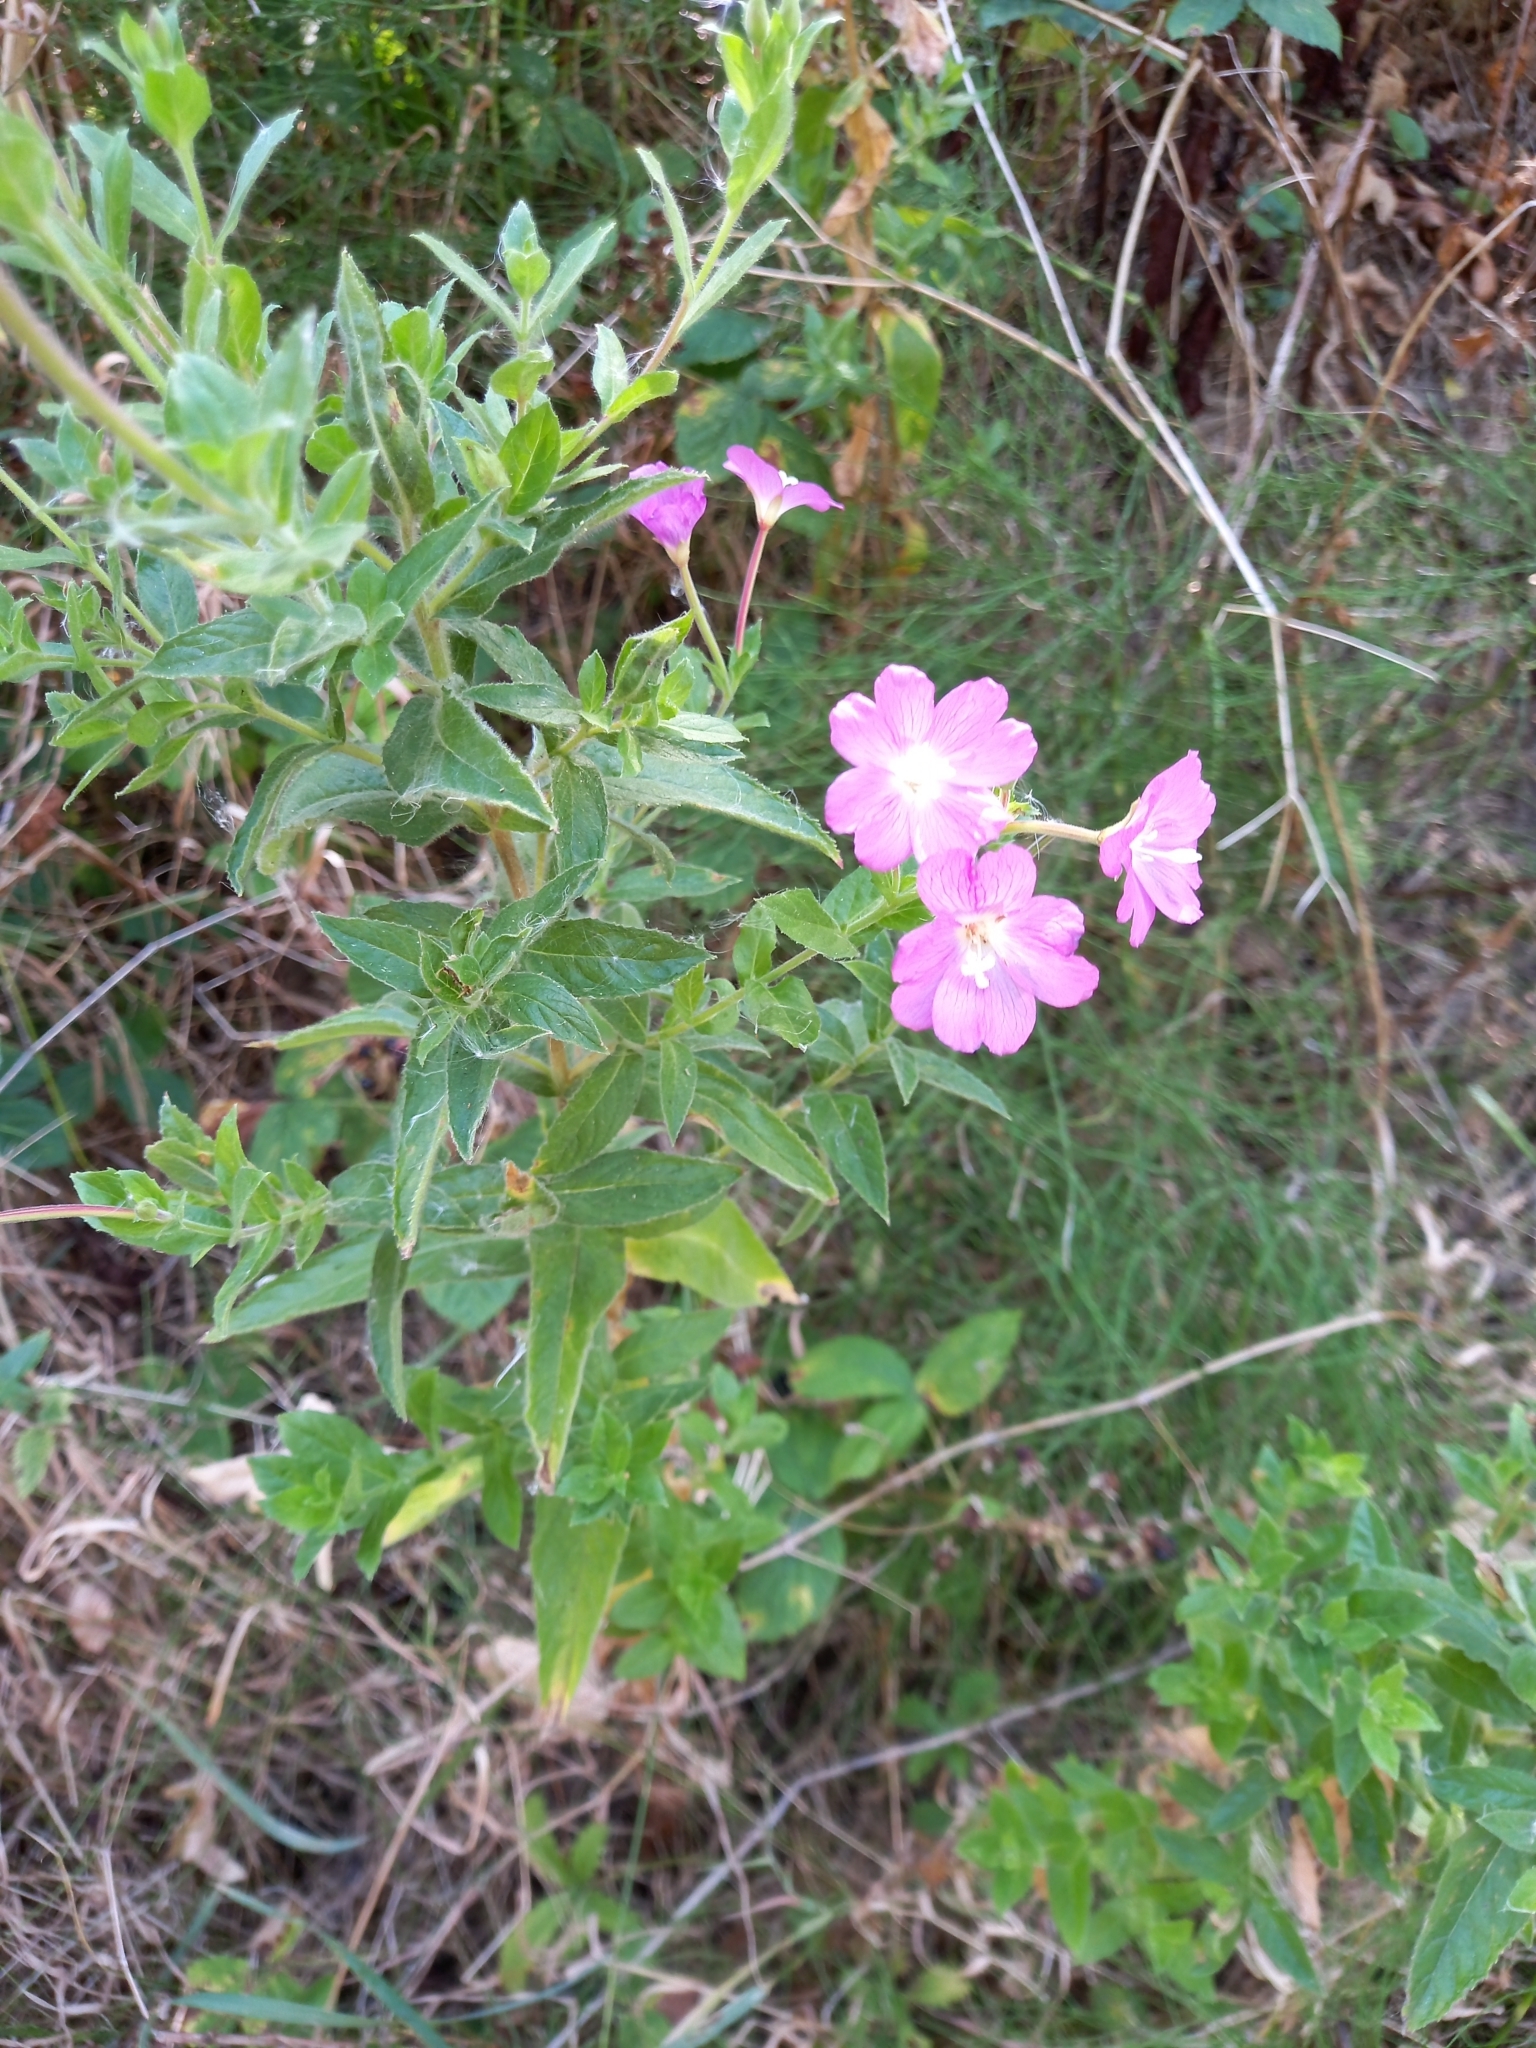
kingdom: Plantae
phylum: Tracheophyta
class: Magnoliopsida
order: Myrtales
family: Onagraceae
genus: Epilobium
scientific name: Epilobium hirsutum
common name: Great willowherb
